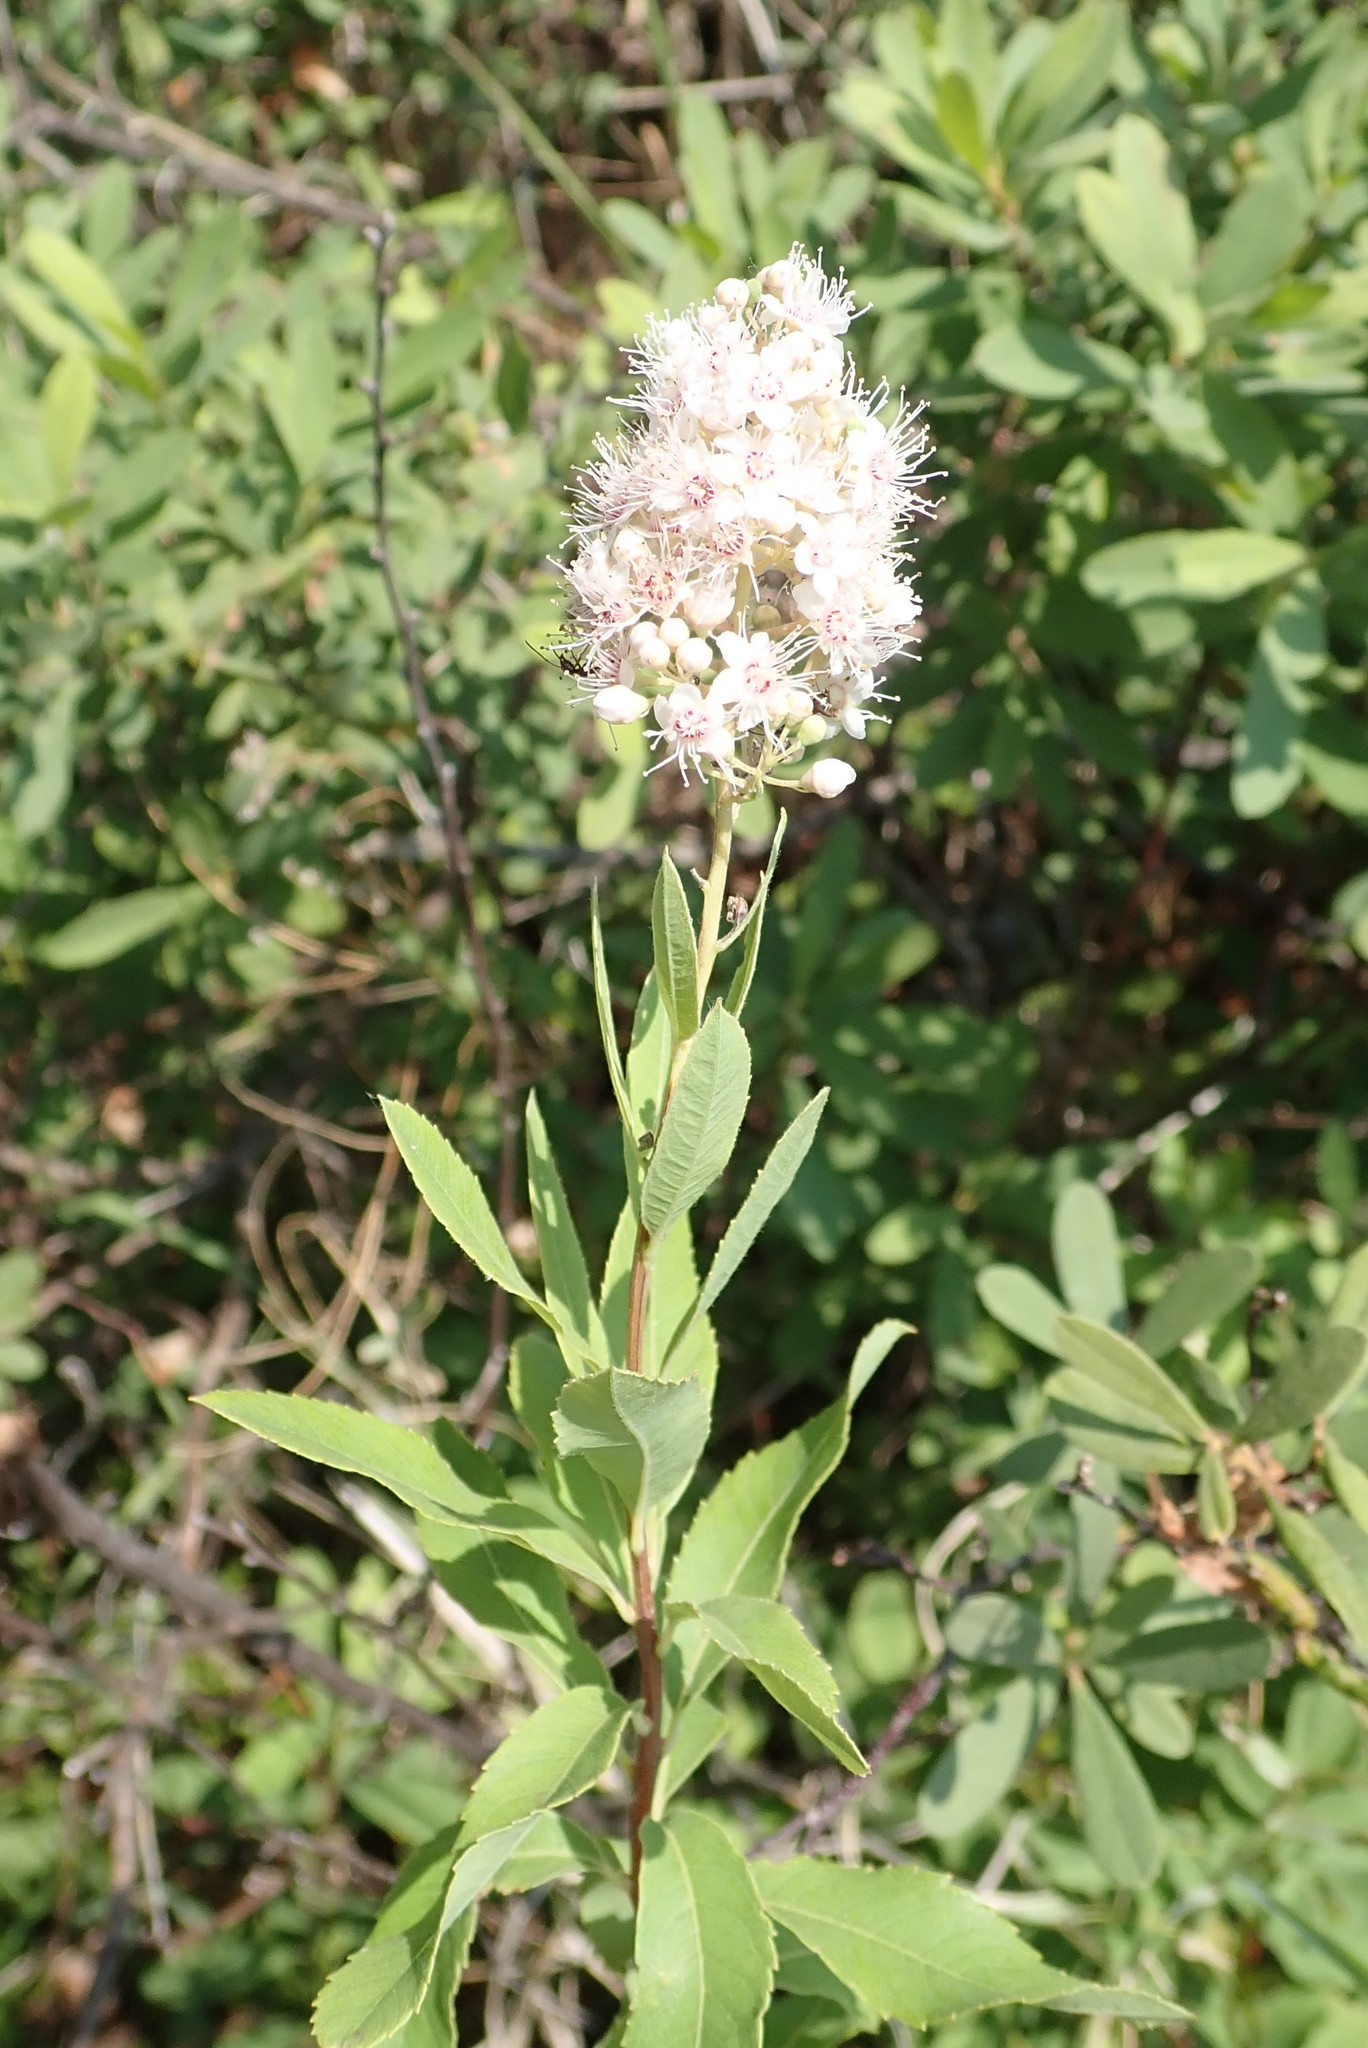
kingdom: Plantae
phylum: Tracheophyta
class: Magnoliopsida
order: Rosales
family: Rosaceae
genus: Spiraea
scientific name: Spiraea alba
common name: Pale bridewort
